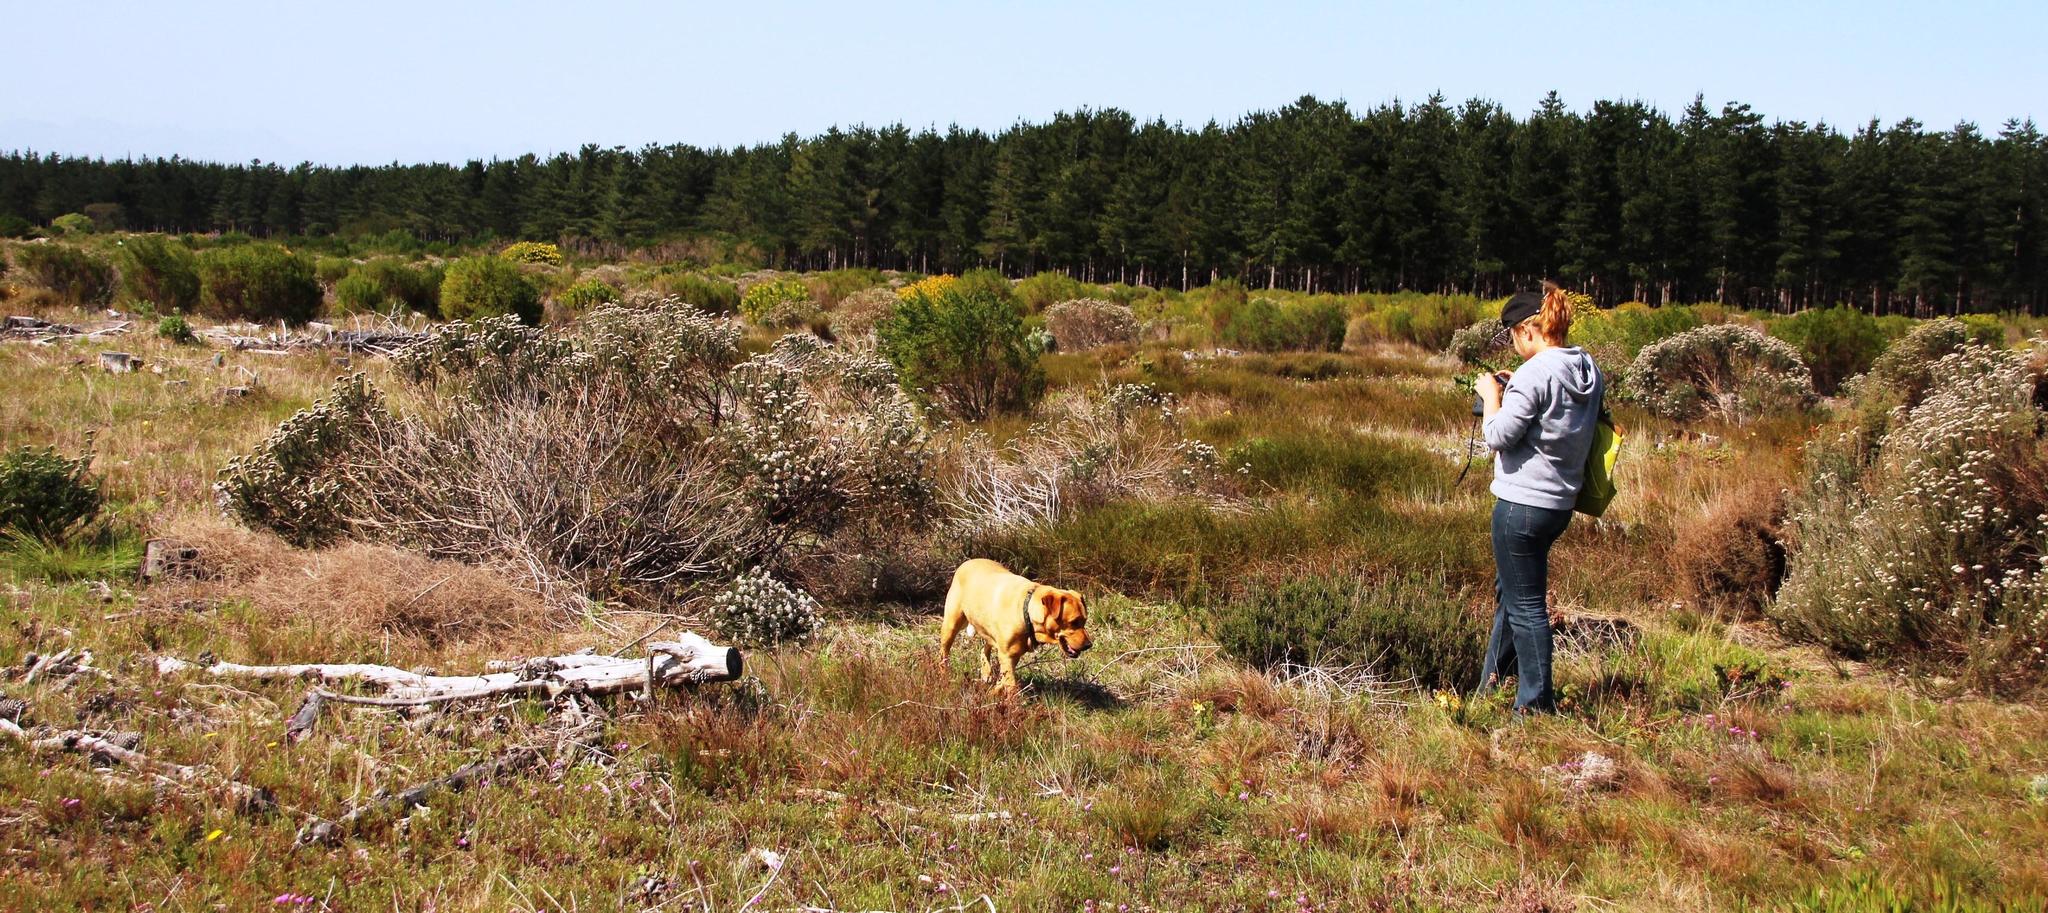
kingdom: Plantae
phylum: Tracheophyta
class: Liliopsida
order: Poales
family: Restionaceae
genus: Willdenowia
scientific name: Willdenowia sulcata
